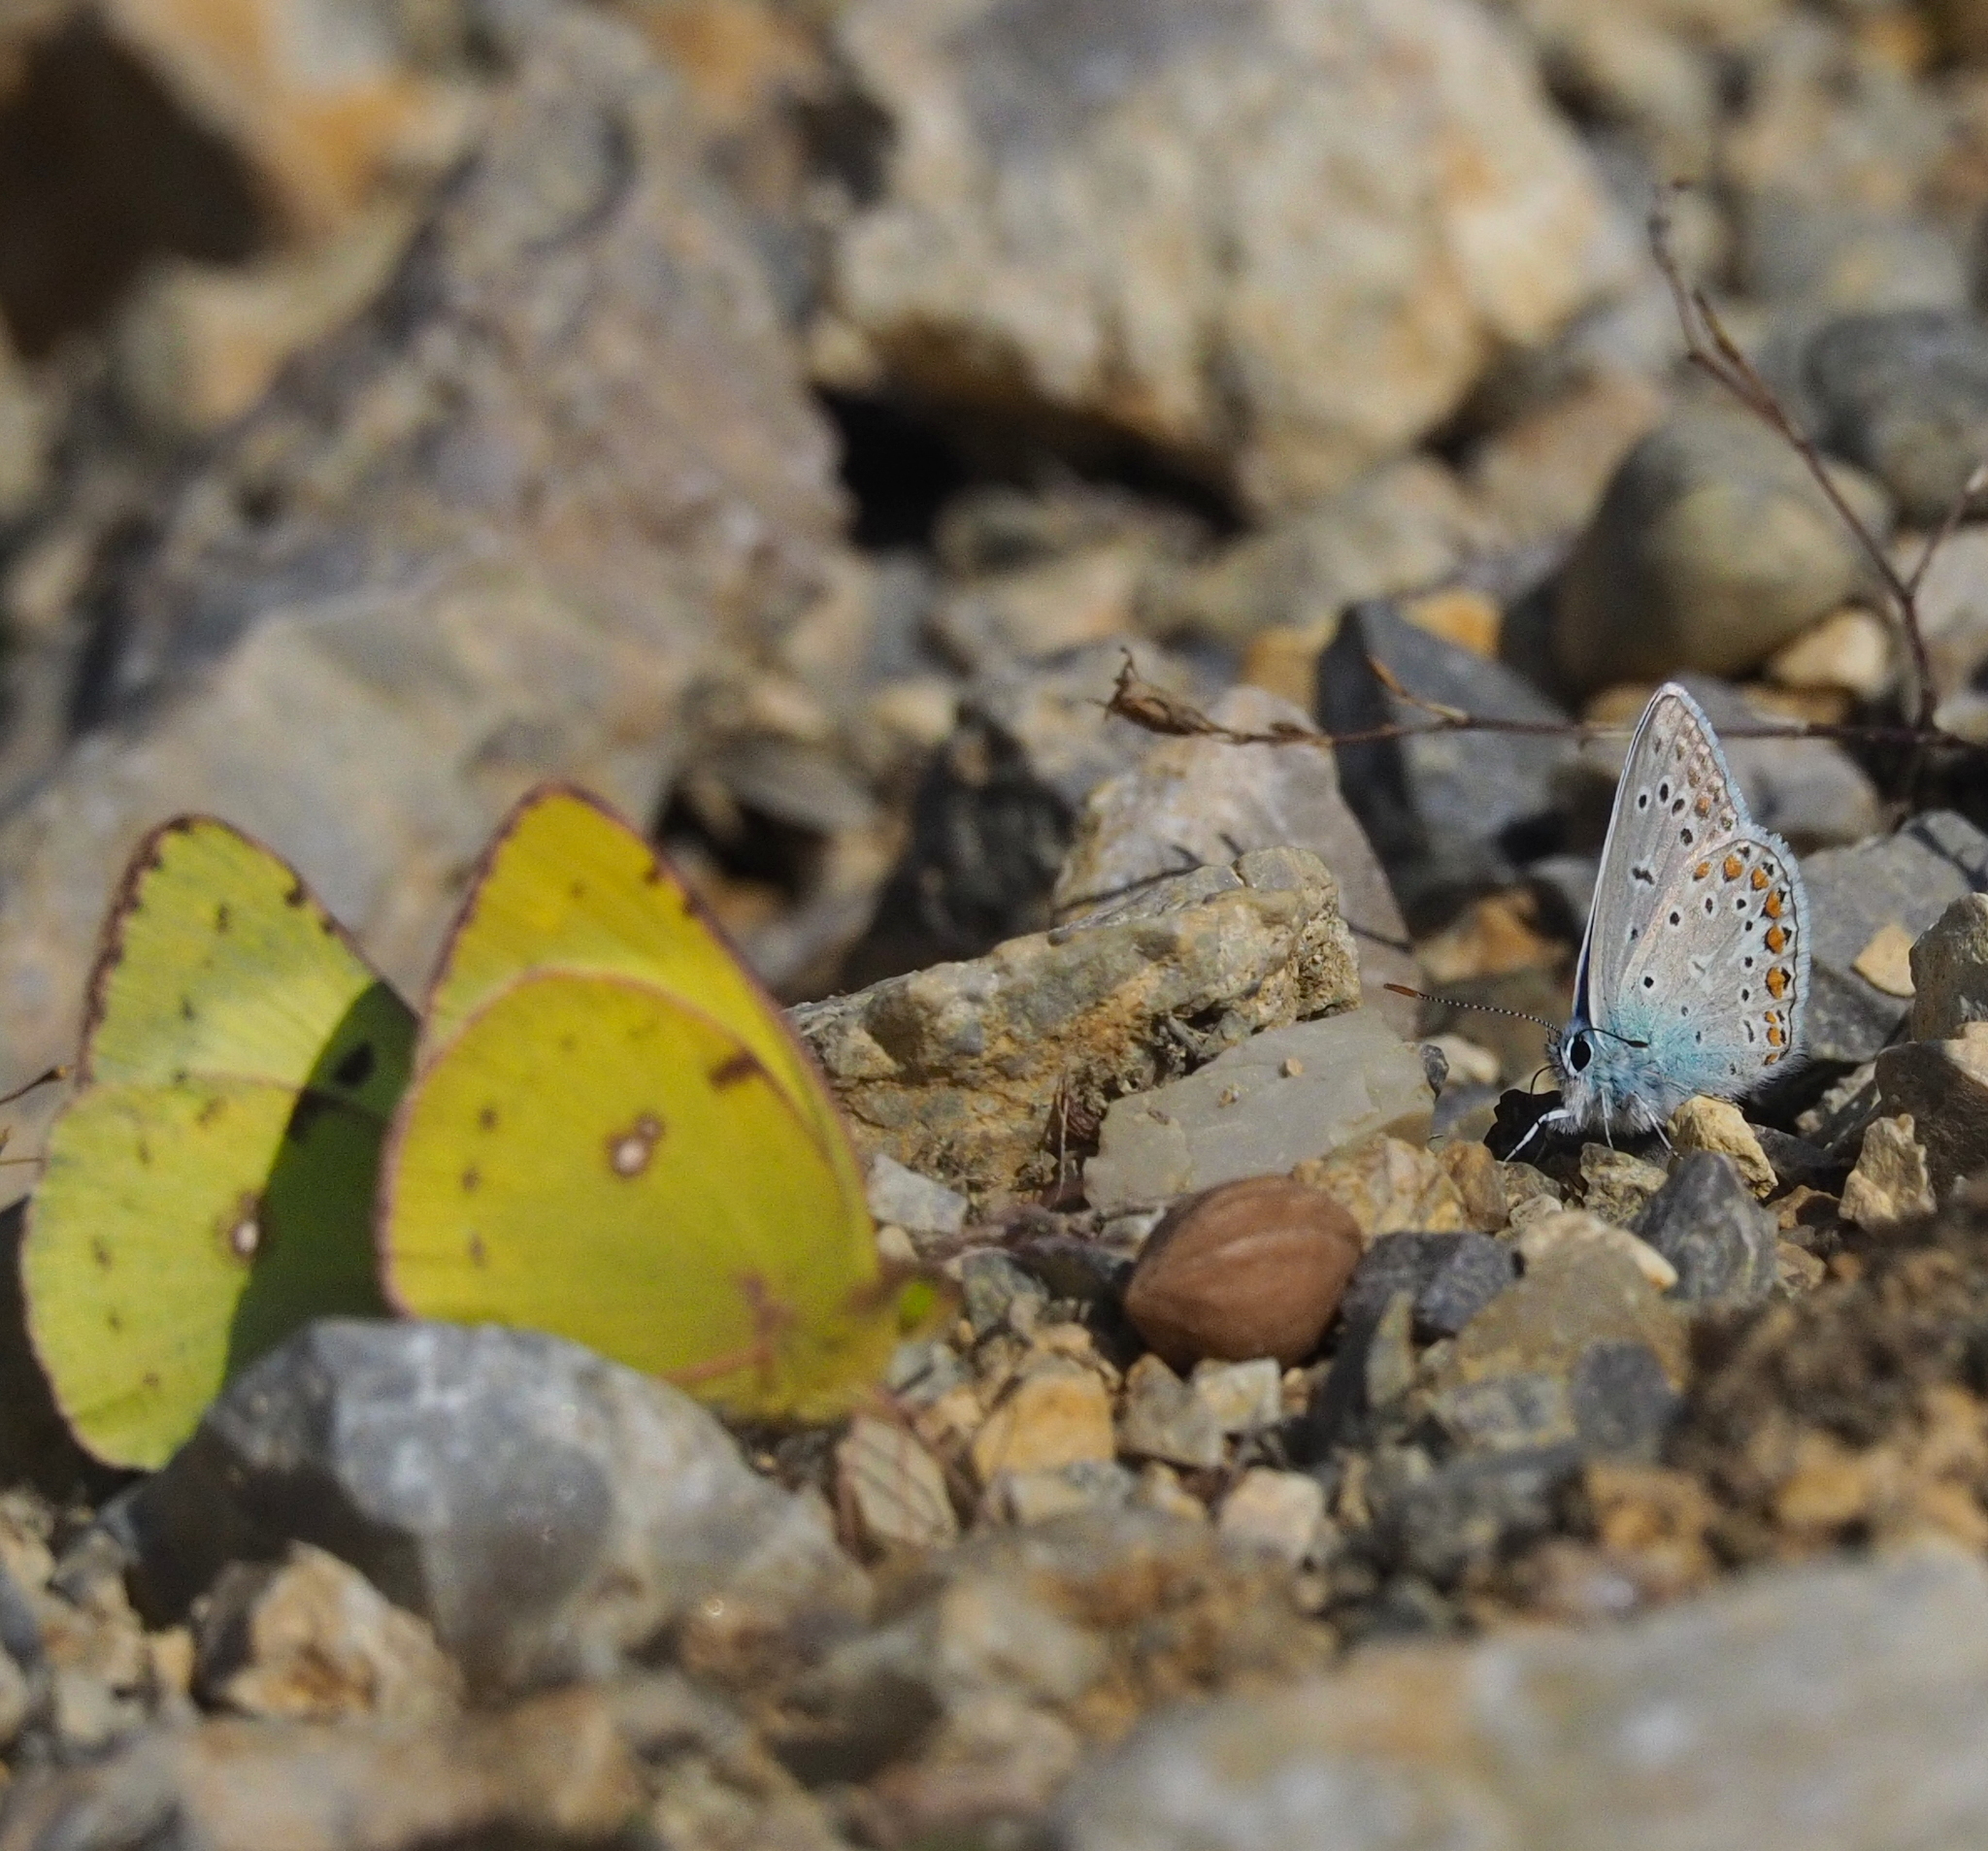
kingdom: Animalia
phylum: Arthropoda
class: Insecta
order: Lepidoptera
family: Lycaenidae
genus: Polyommatus
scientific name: Polyommatus icarus
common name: Common blue
